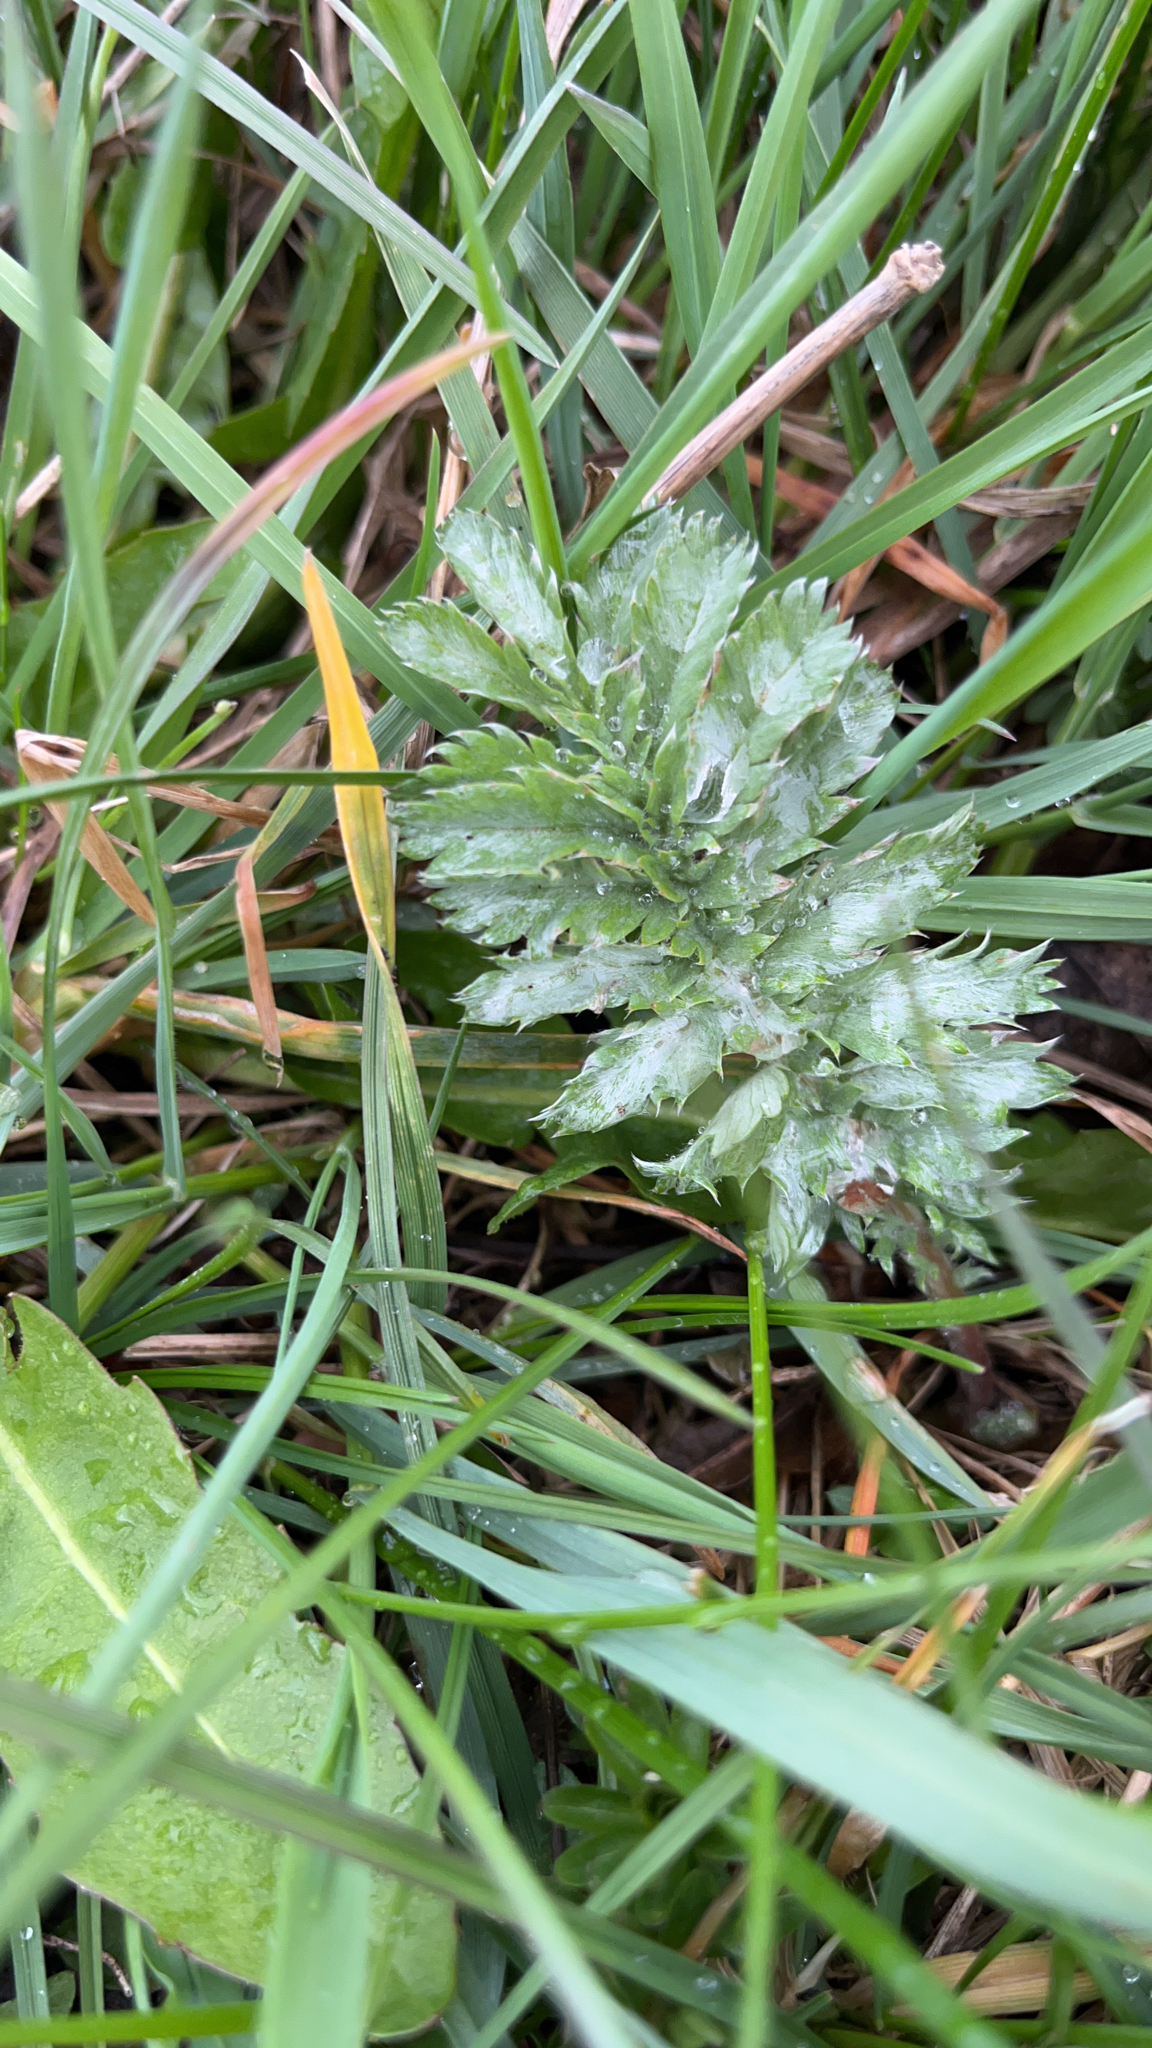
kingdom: Plantae
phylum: Tracheophyta
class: Magnoliopsida
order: Rosales
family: Rosaceae
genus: Argentina
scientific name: Argentina anserina
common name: Common silverweed
